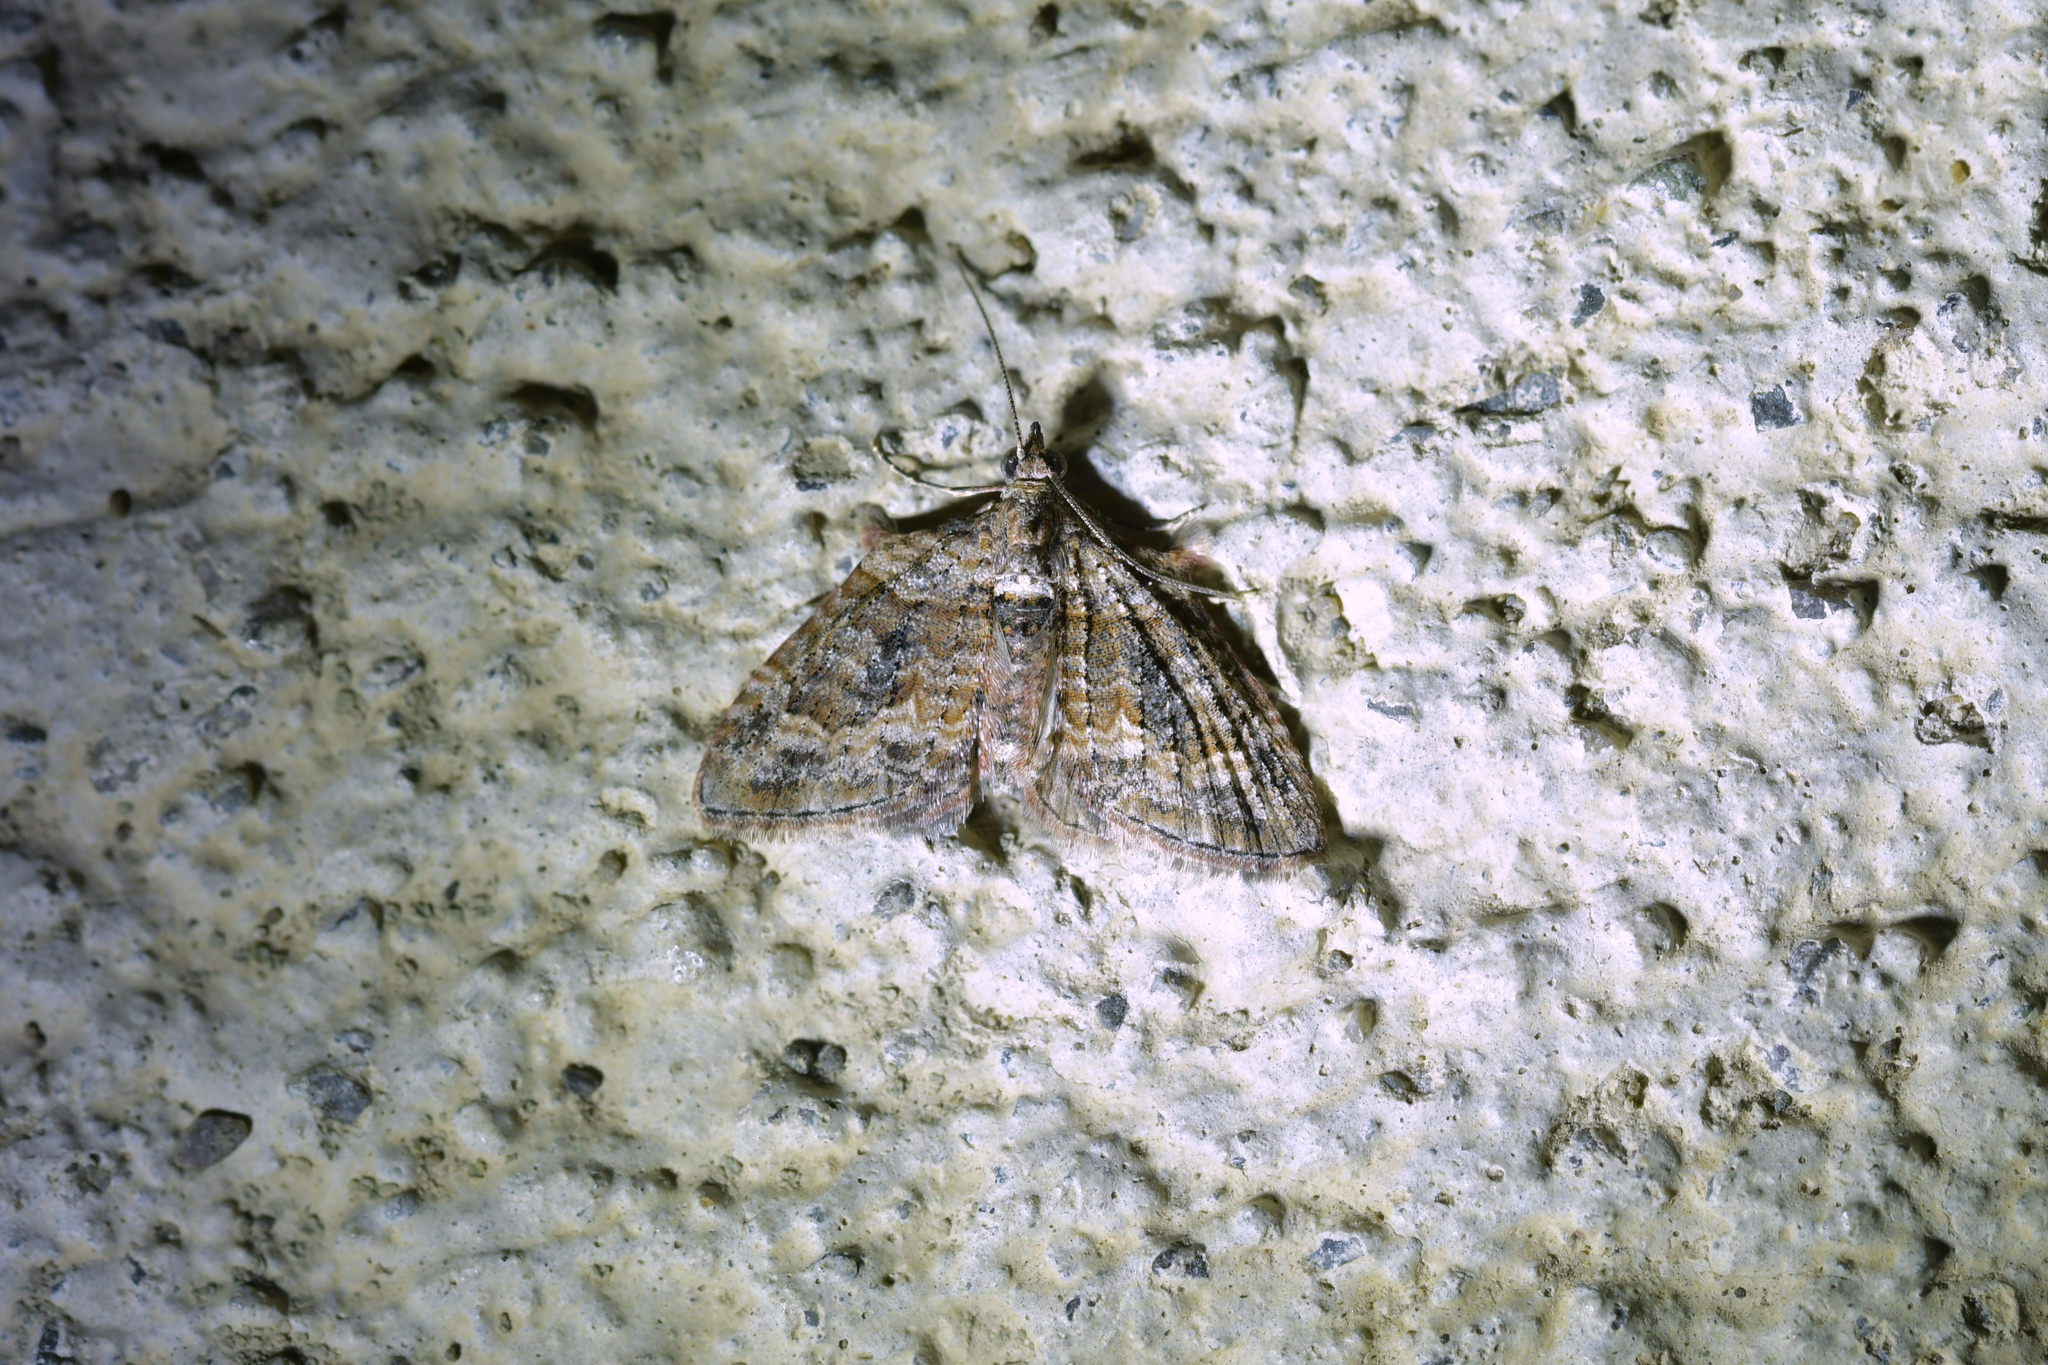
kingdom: Animalia
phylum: Arthropoda
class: Insecta
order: Lepidoptera
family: Geometridae
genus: Phrissogonus
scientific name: Phrissogonus laticostata
